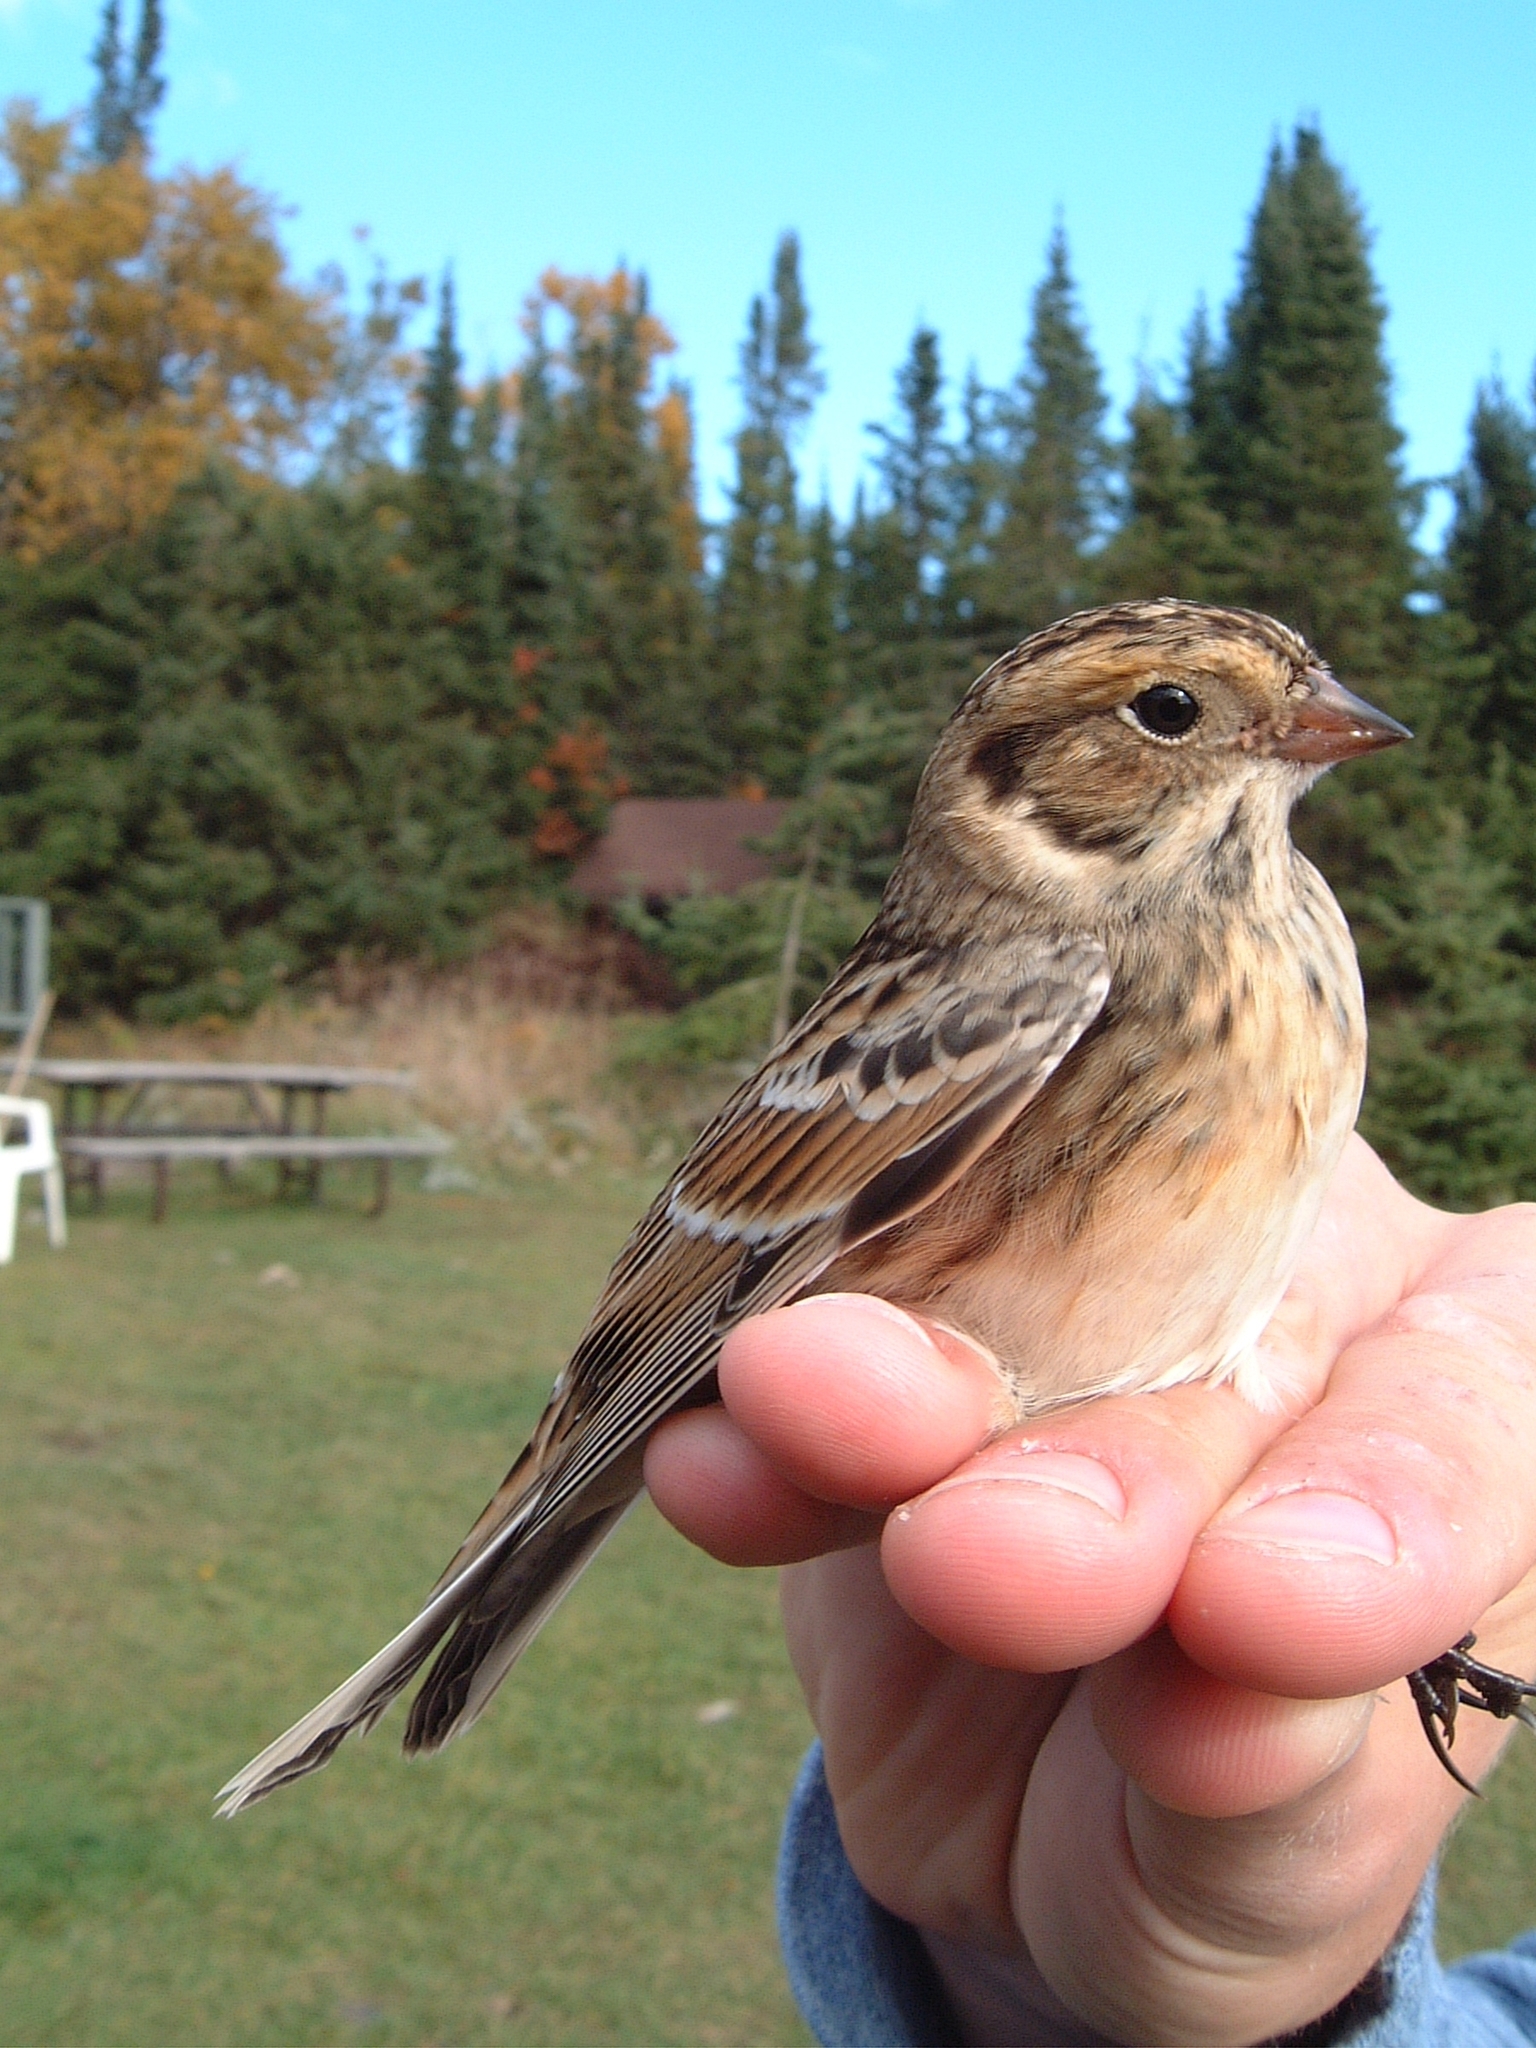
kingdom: Animalia
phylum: Chordata
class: Aves
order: Passeriformes
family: Calcariidae
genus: Calcarius
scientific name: Calcarius lapponicus
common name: Lapland longspur
